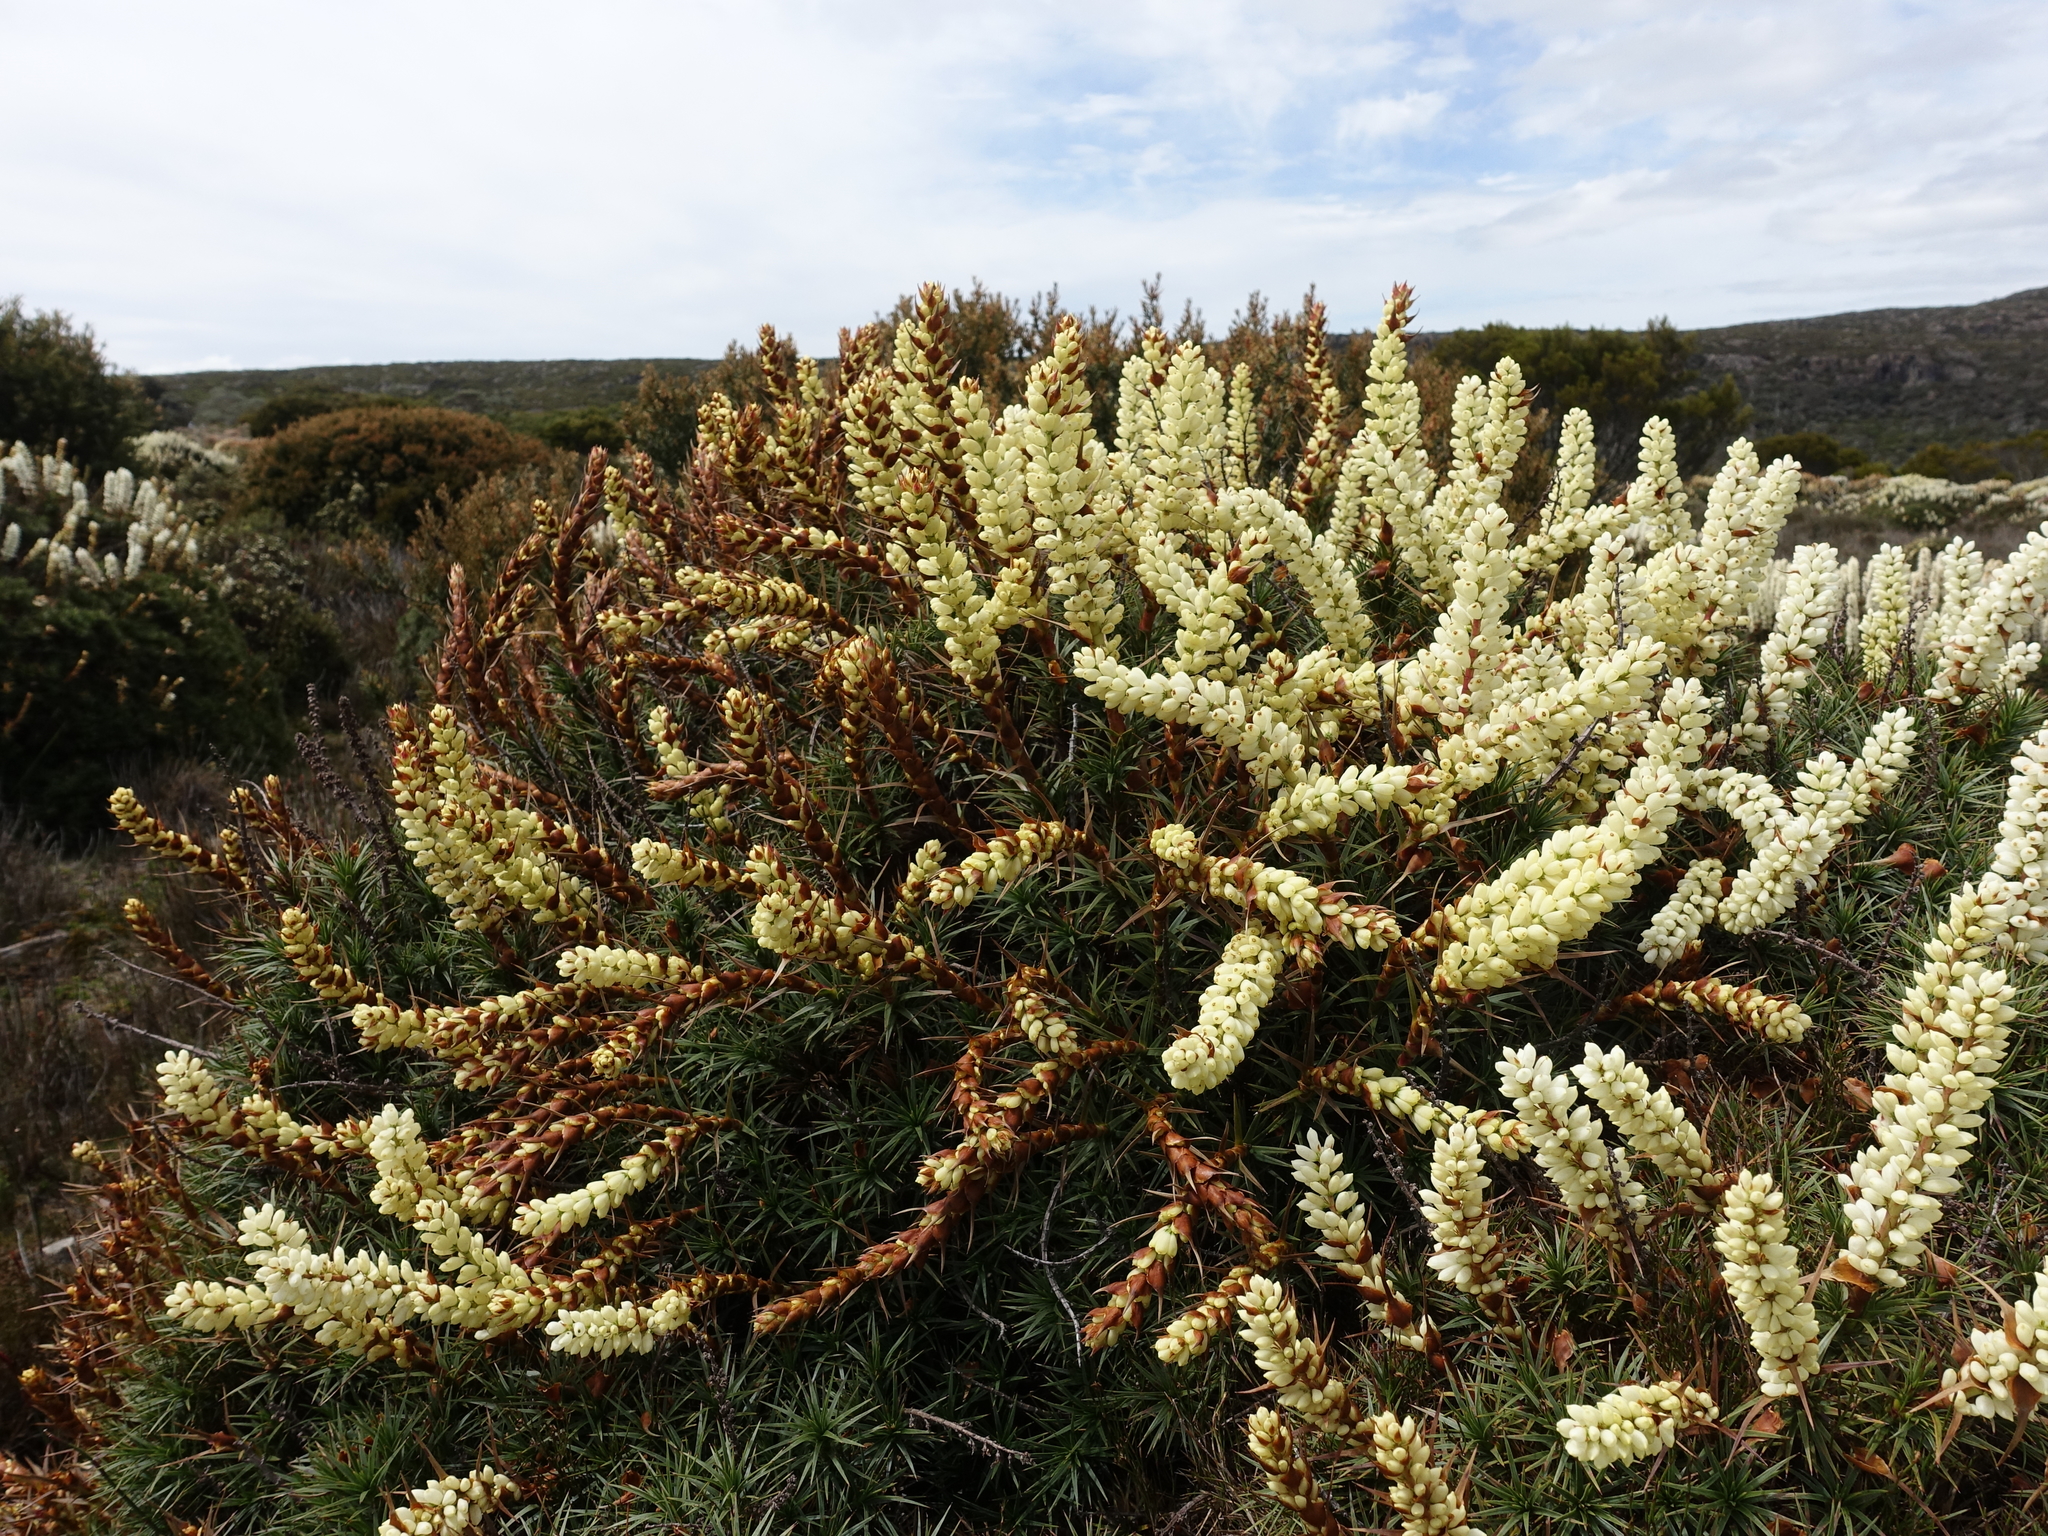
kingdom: Plantae
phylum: Tracheophyta
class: Magnoliopsida
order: Ericales
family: Ericaceae
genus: Dracophyllum
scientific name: Dracophyllum persistentifolium
